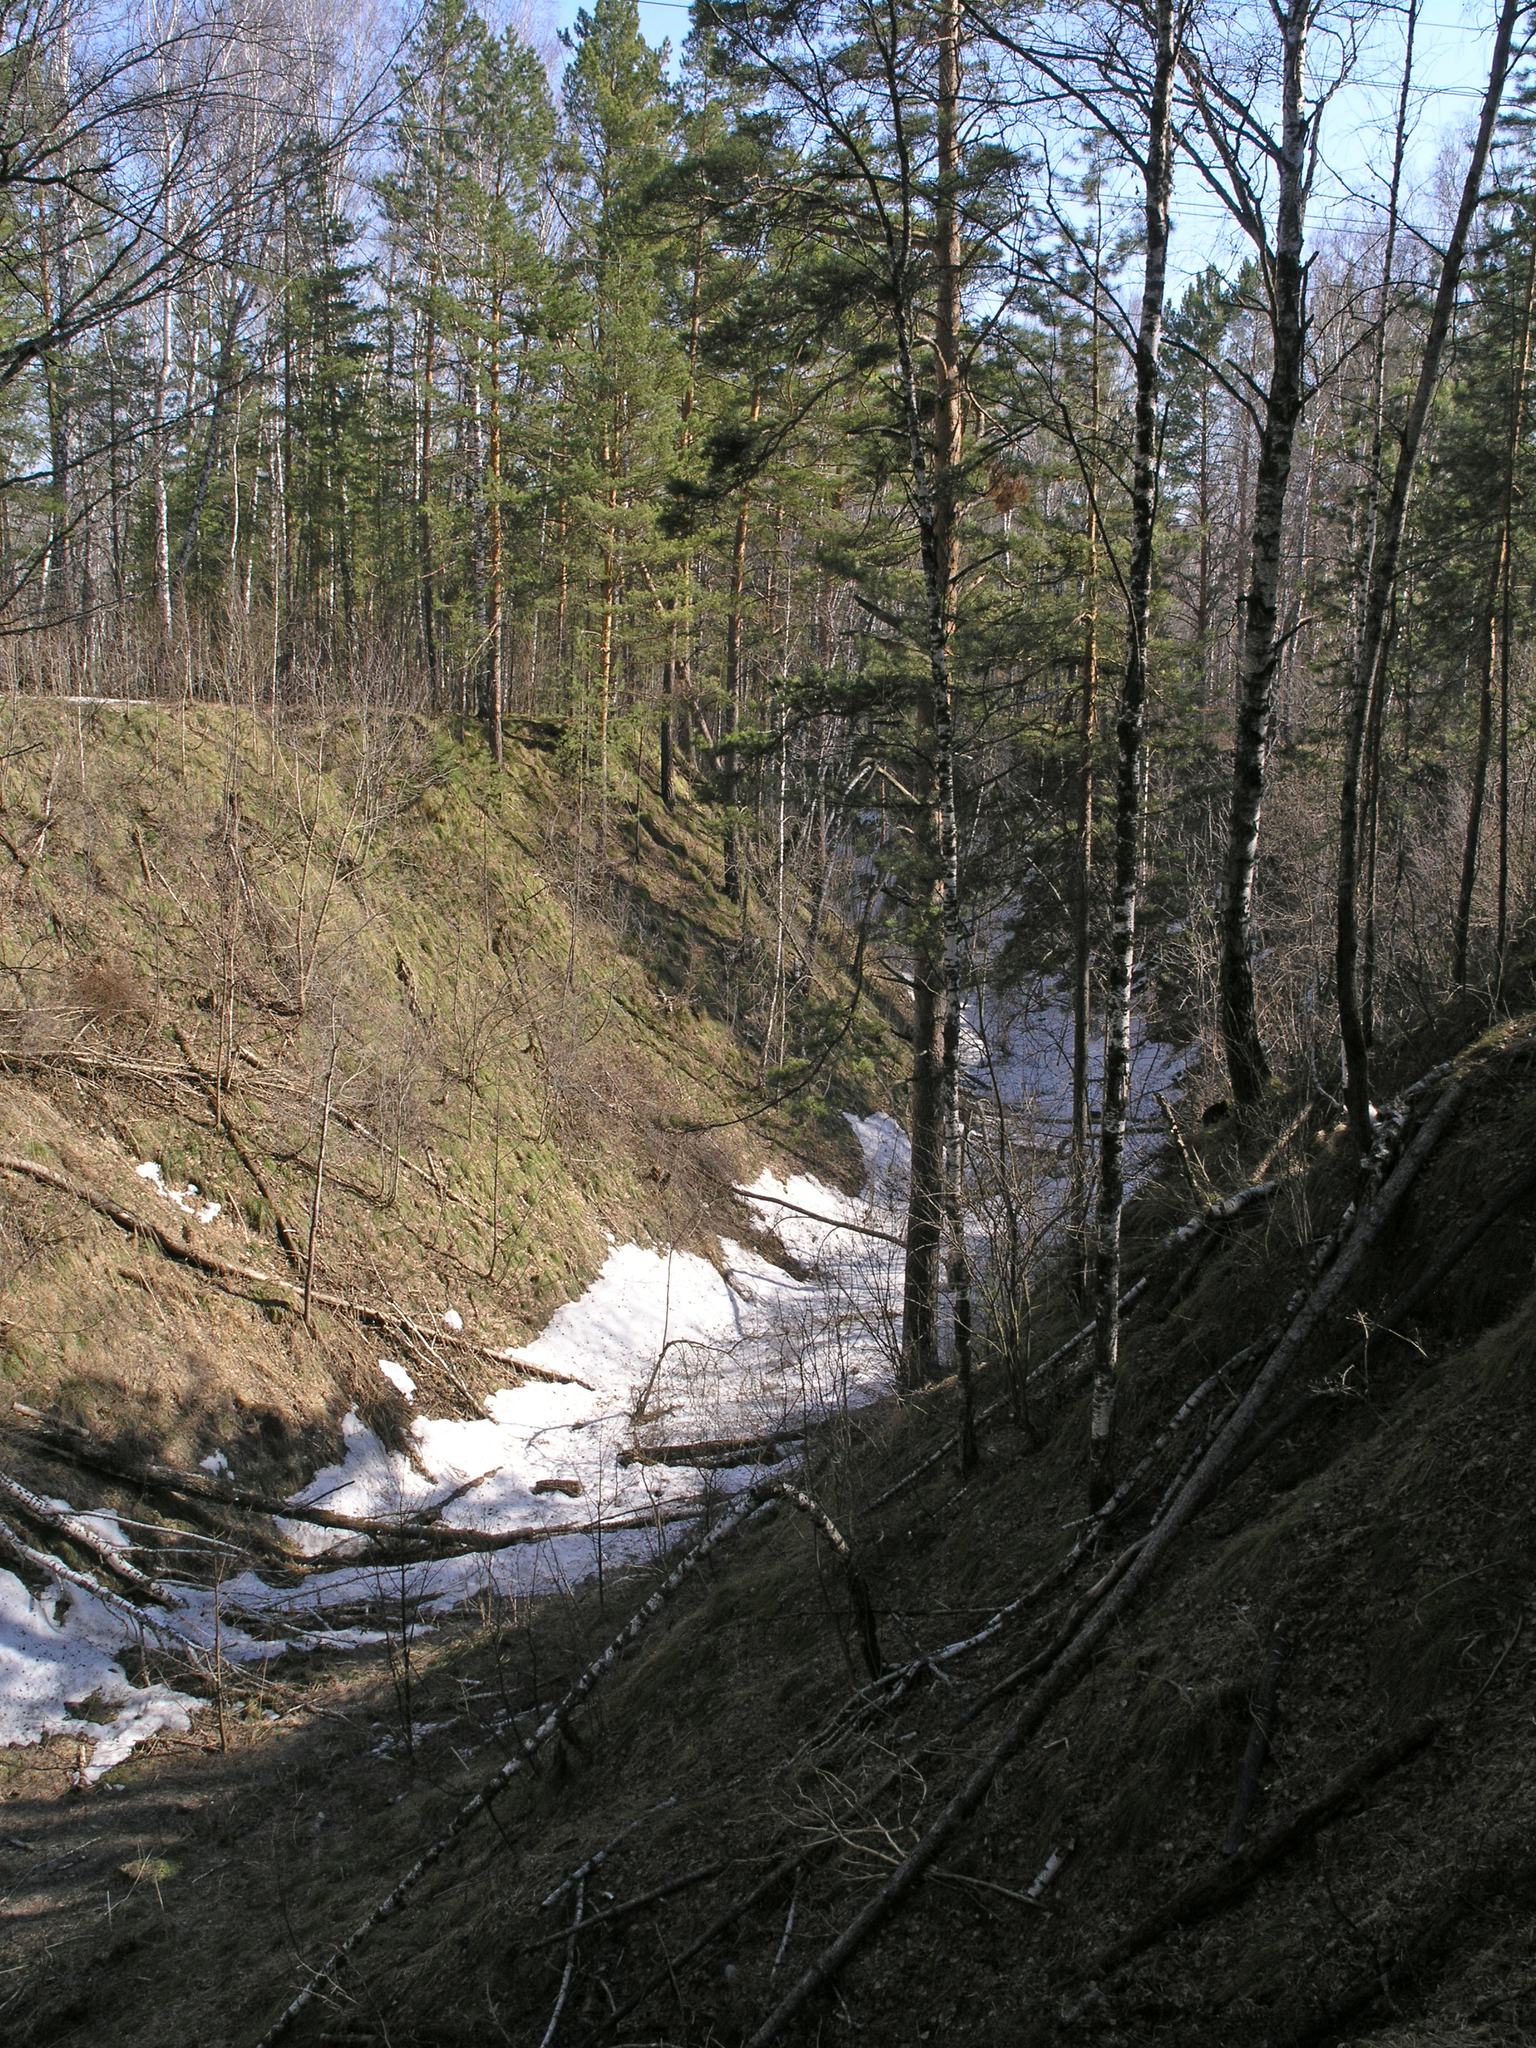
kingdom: Plantae
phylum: Tracheophyta
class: Magnoliopsida
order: Fagales
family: Betulaceae
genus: Betula
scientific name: Betula pendula
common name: Silver birch
